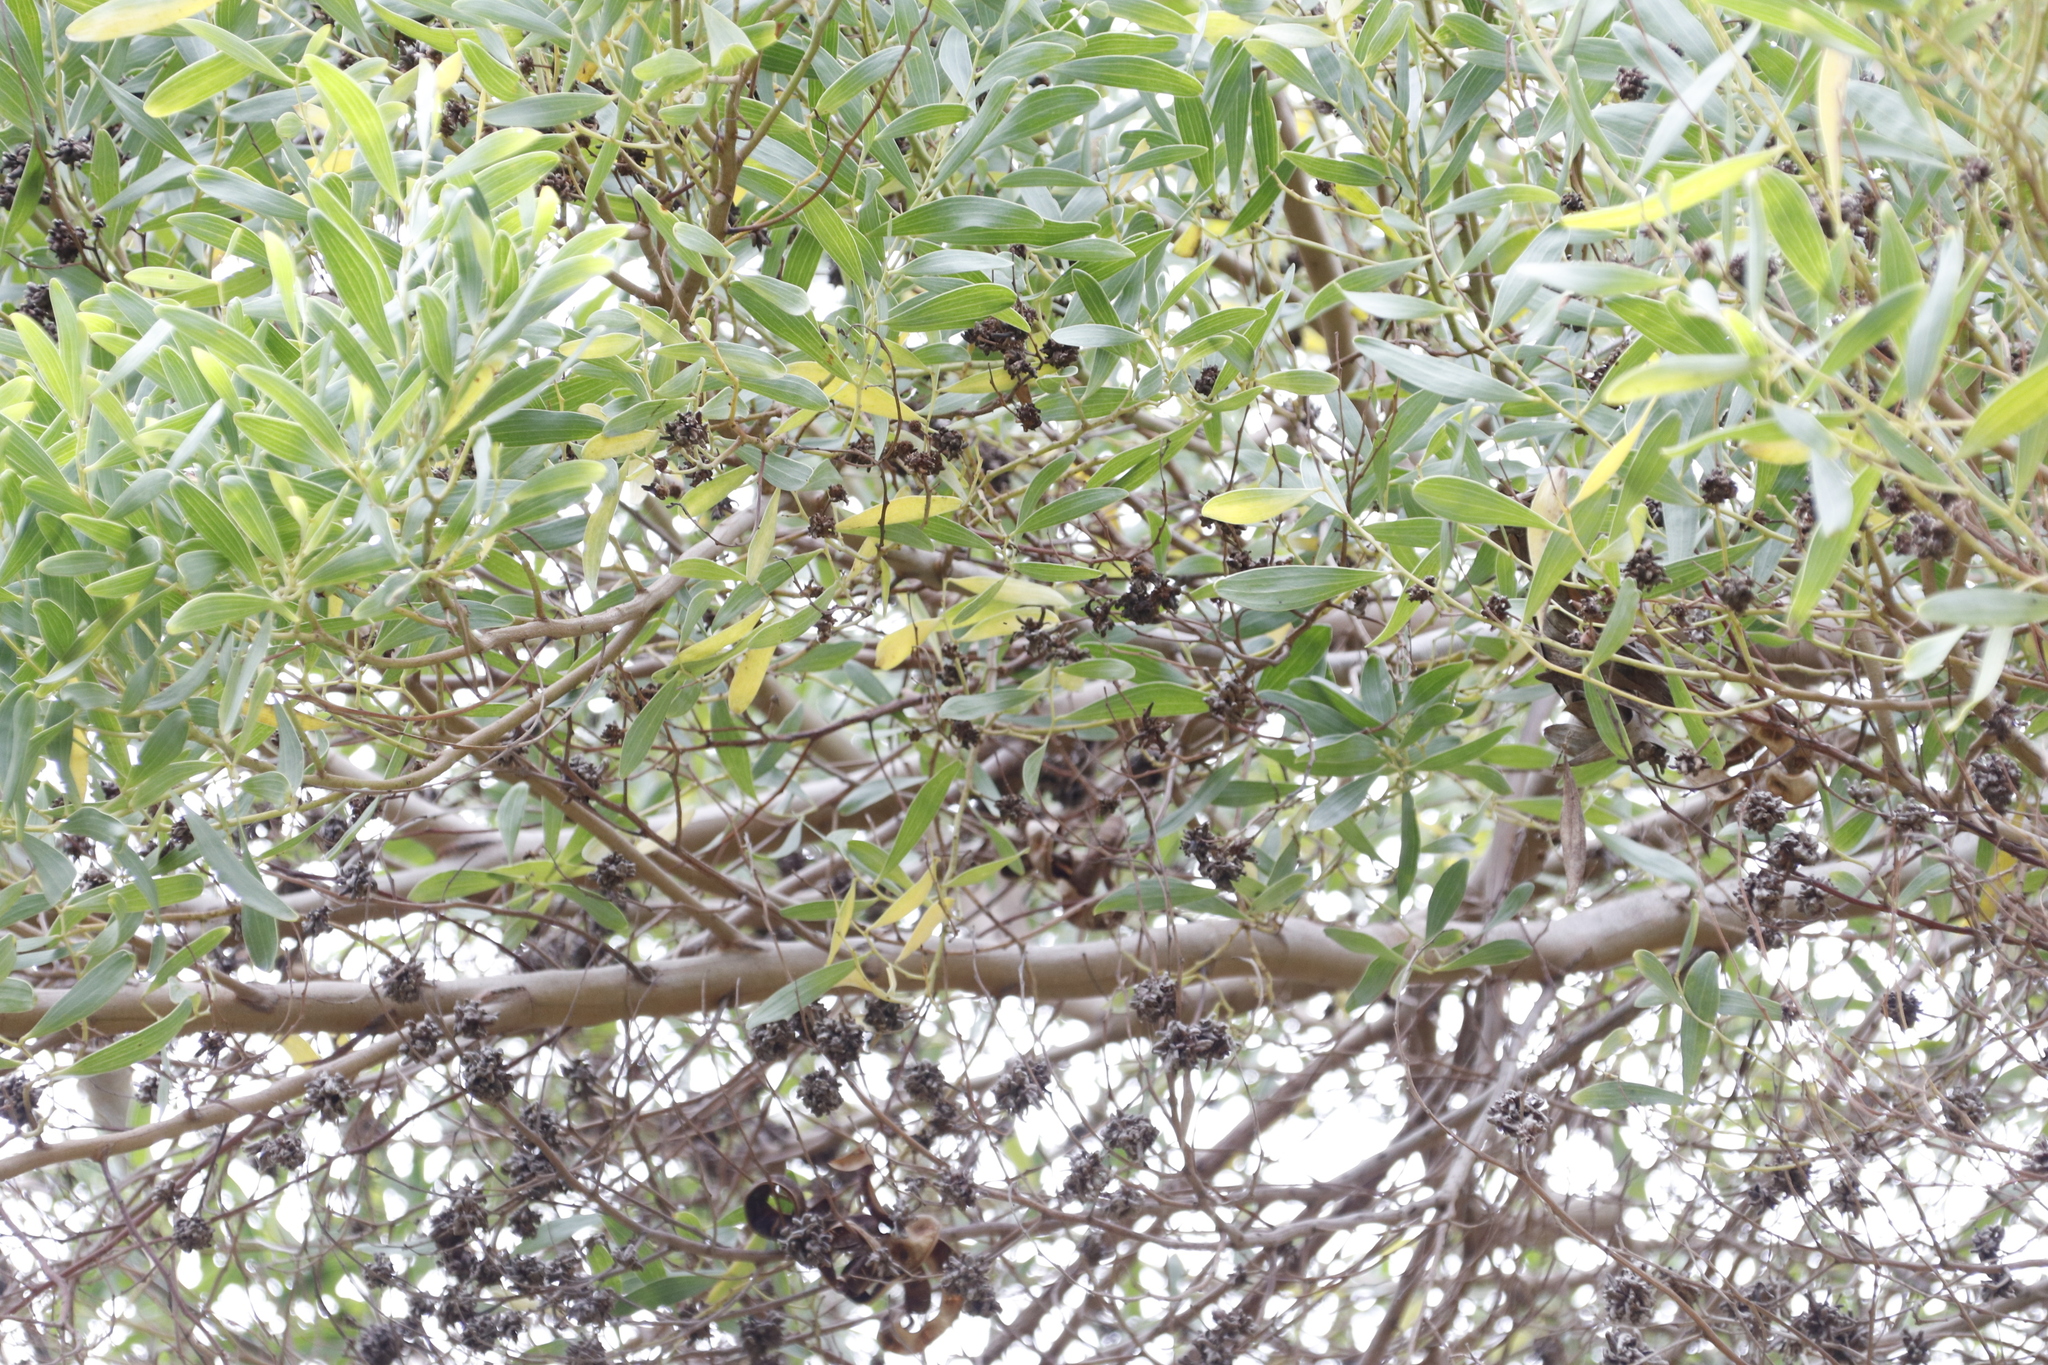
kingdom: Animalia
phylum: Arthropoda
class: Insecta
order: Diptera
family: Cecidomyiidae
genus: Dasineura
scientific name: Dasineura dielsi
